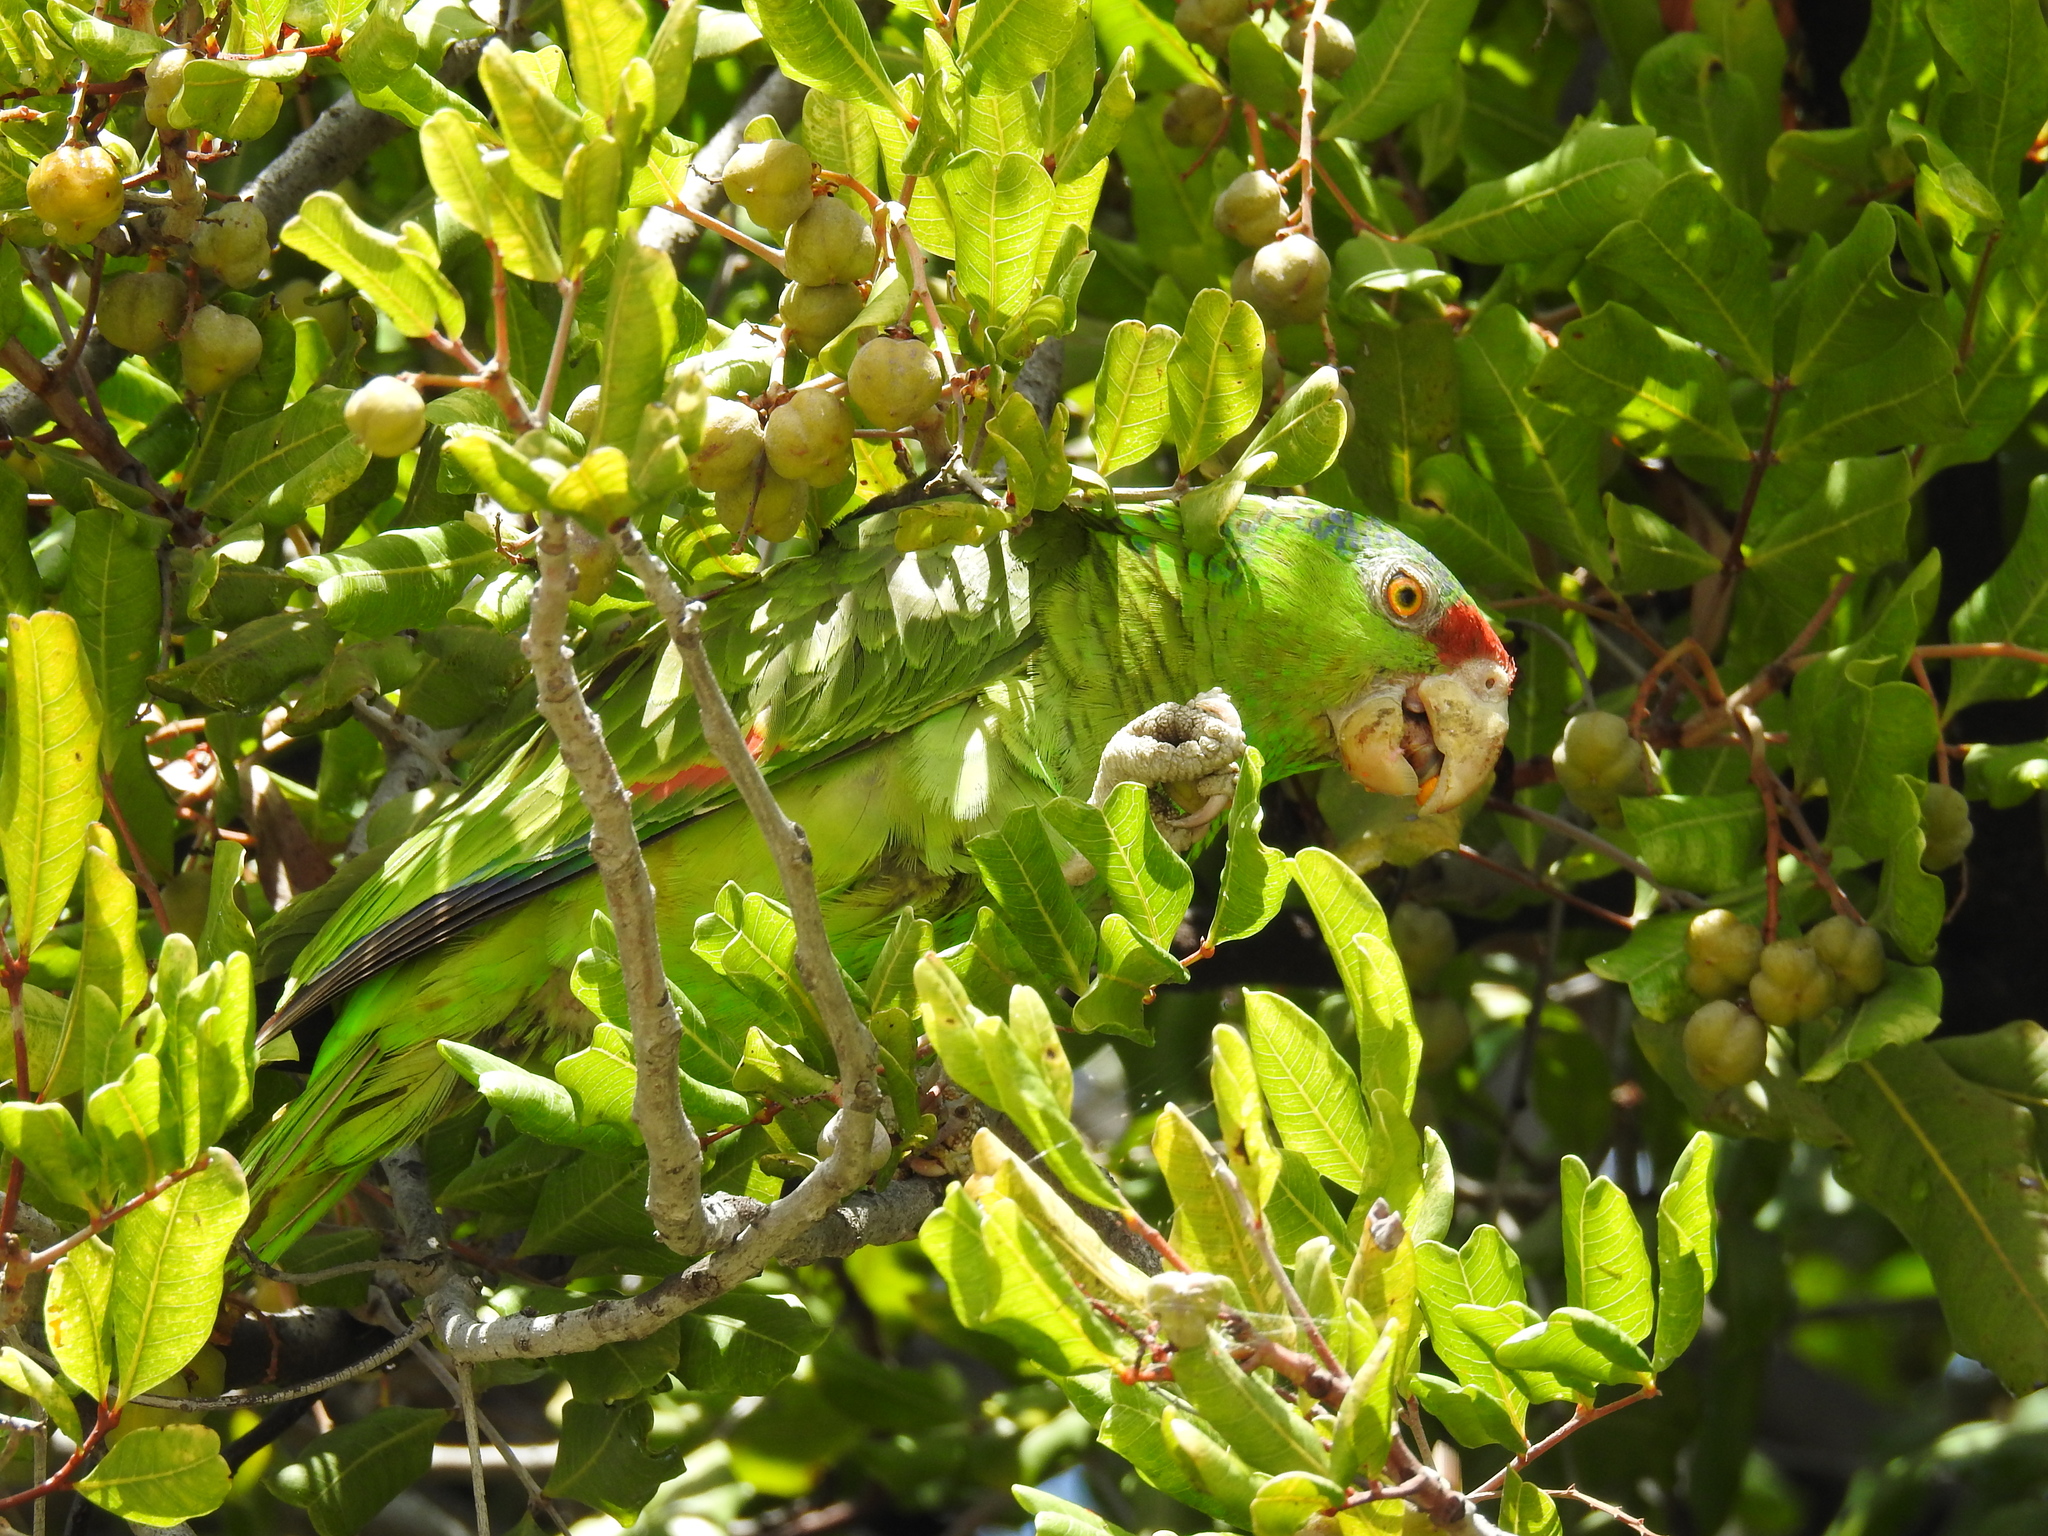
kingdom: Animalia
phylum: Chordata
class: Aves
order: Psittaciformes
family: Psittacidae
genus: Amazona
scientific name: Amazona viridigenalis
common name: Red-crowned amazon
